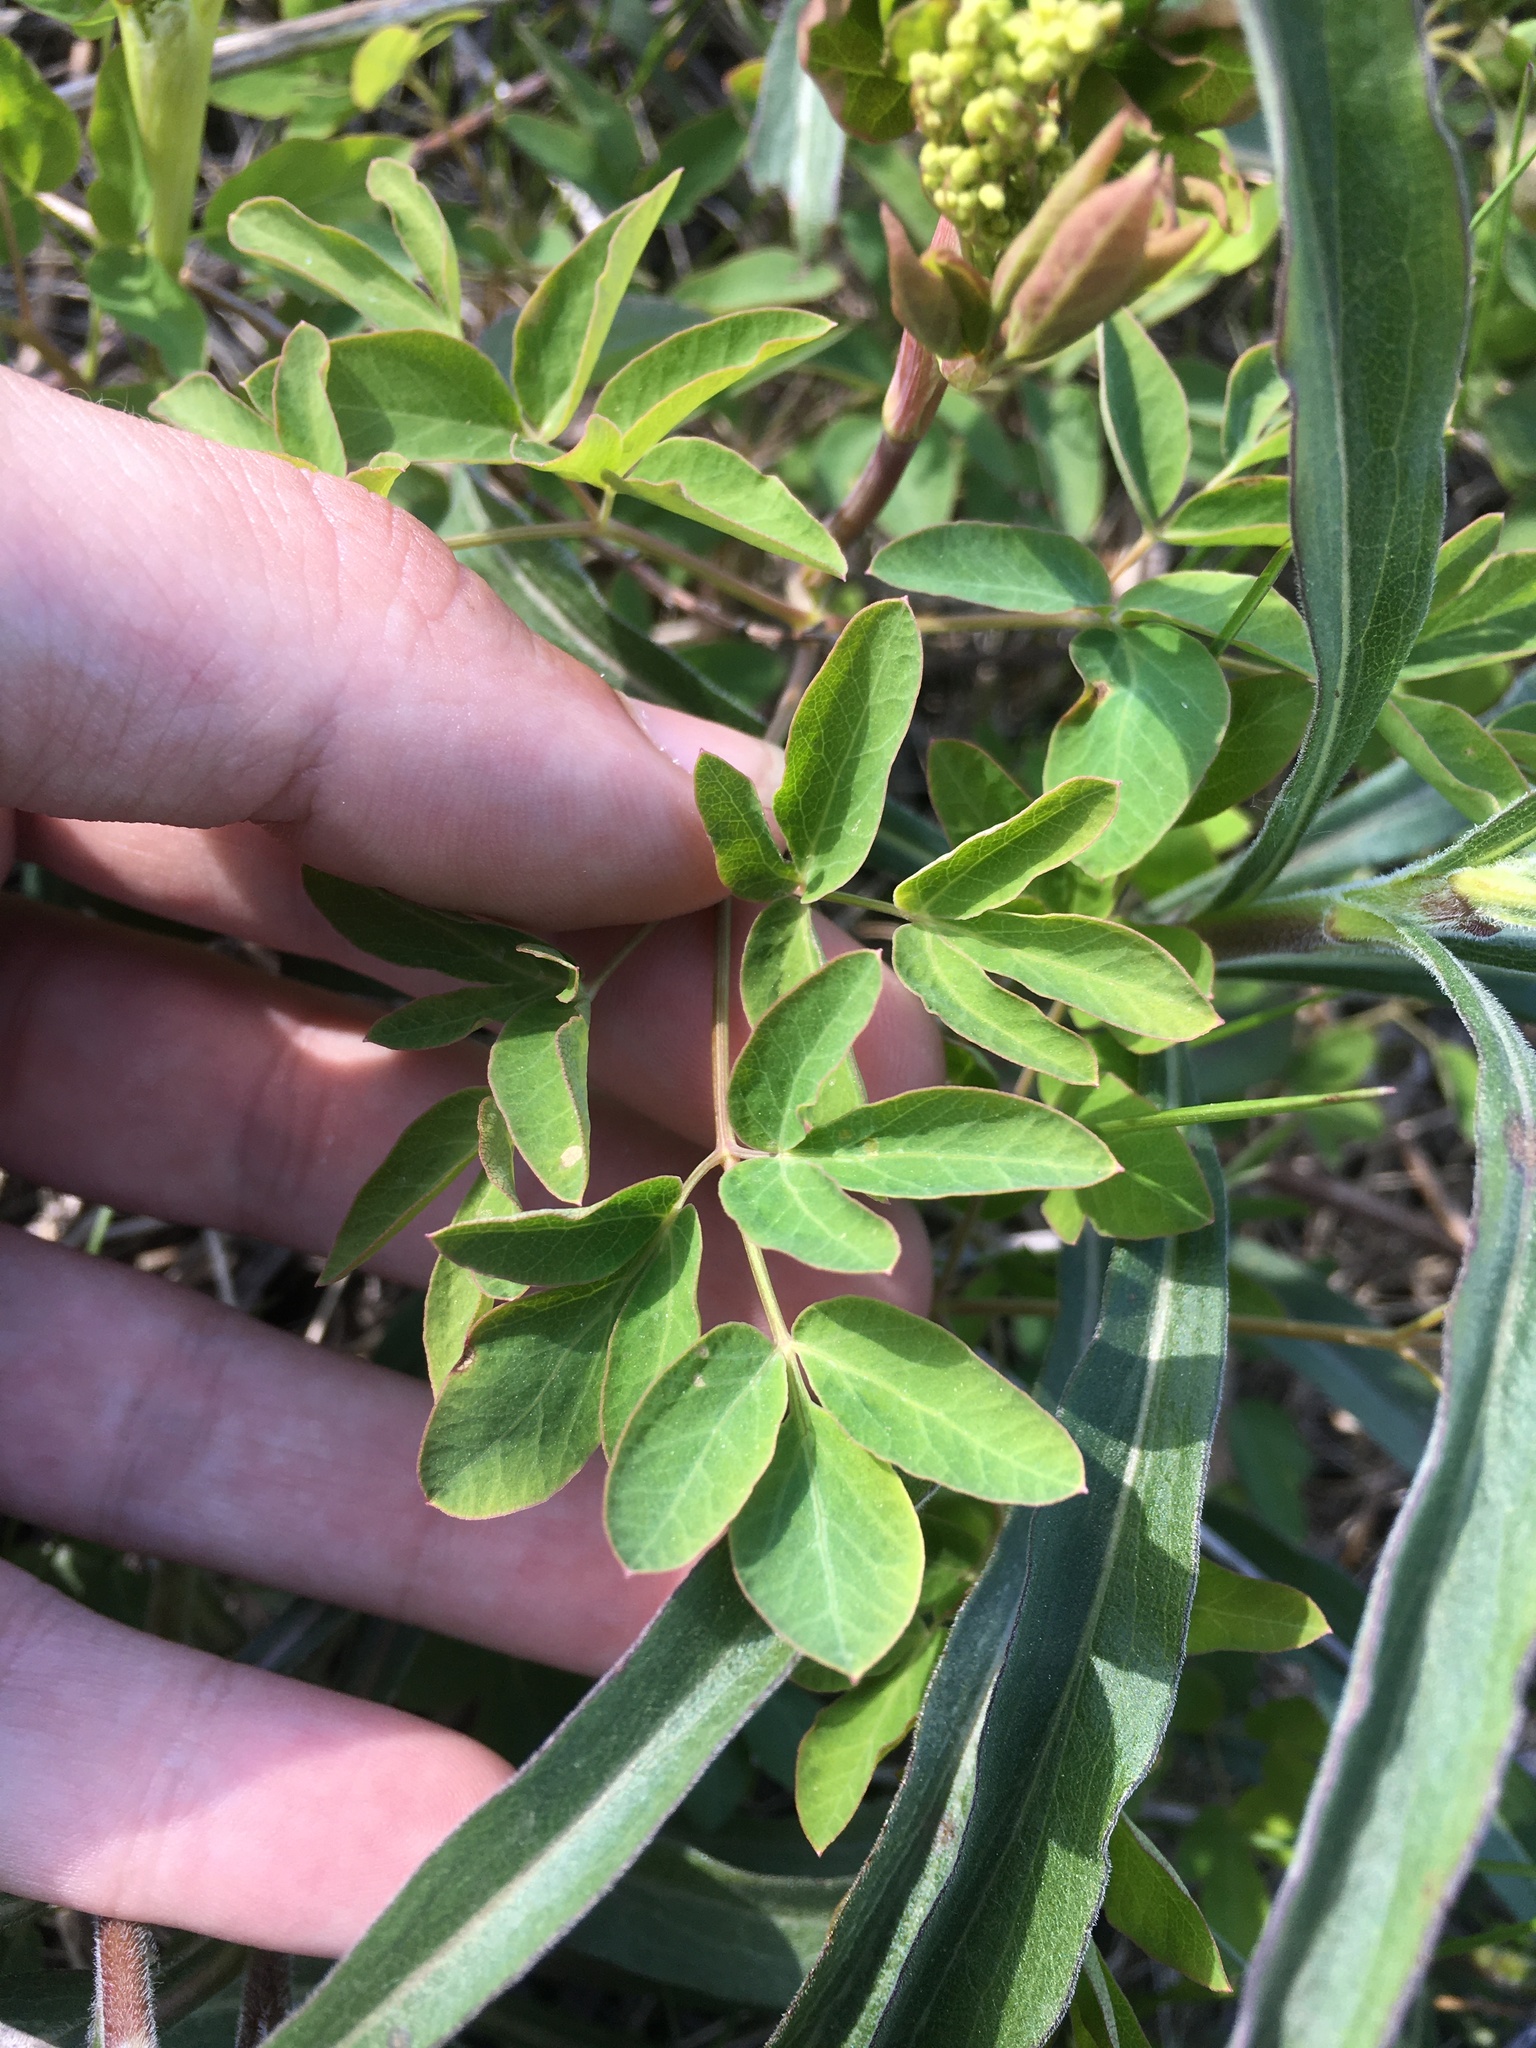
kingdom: Plantae
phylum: Tracheophyta
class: Magnoliopsida
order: Apiales
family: Apiaceae
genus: Taenidia
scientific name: Taenidia integerrima
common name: Golden alexander
